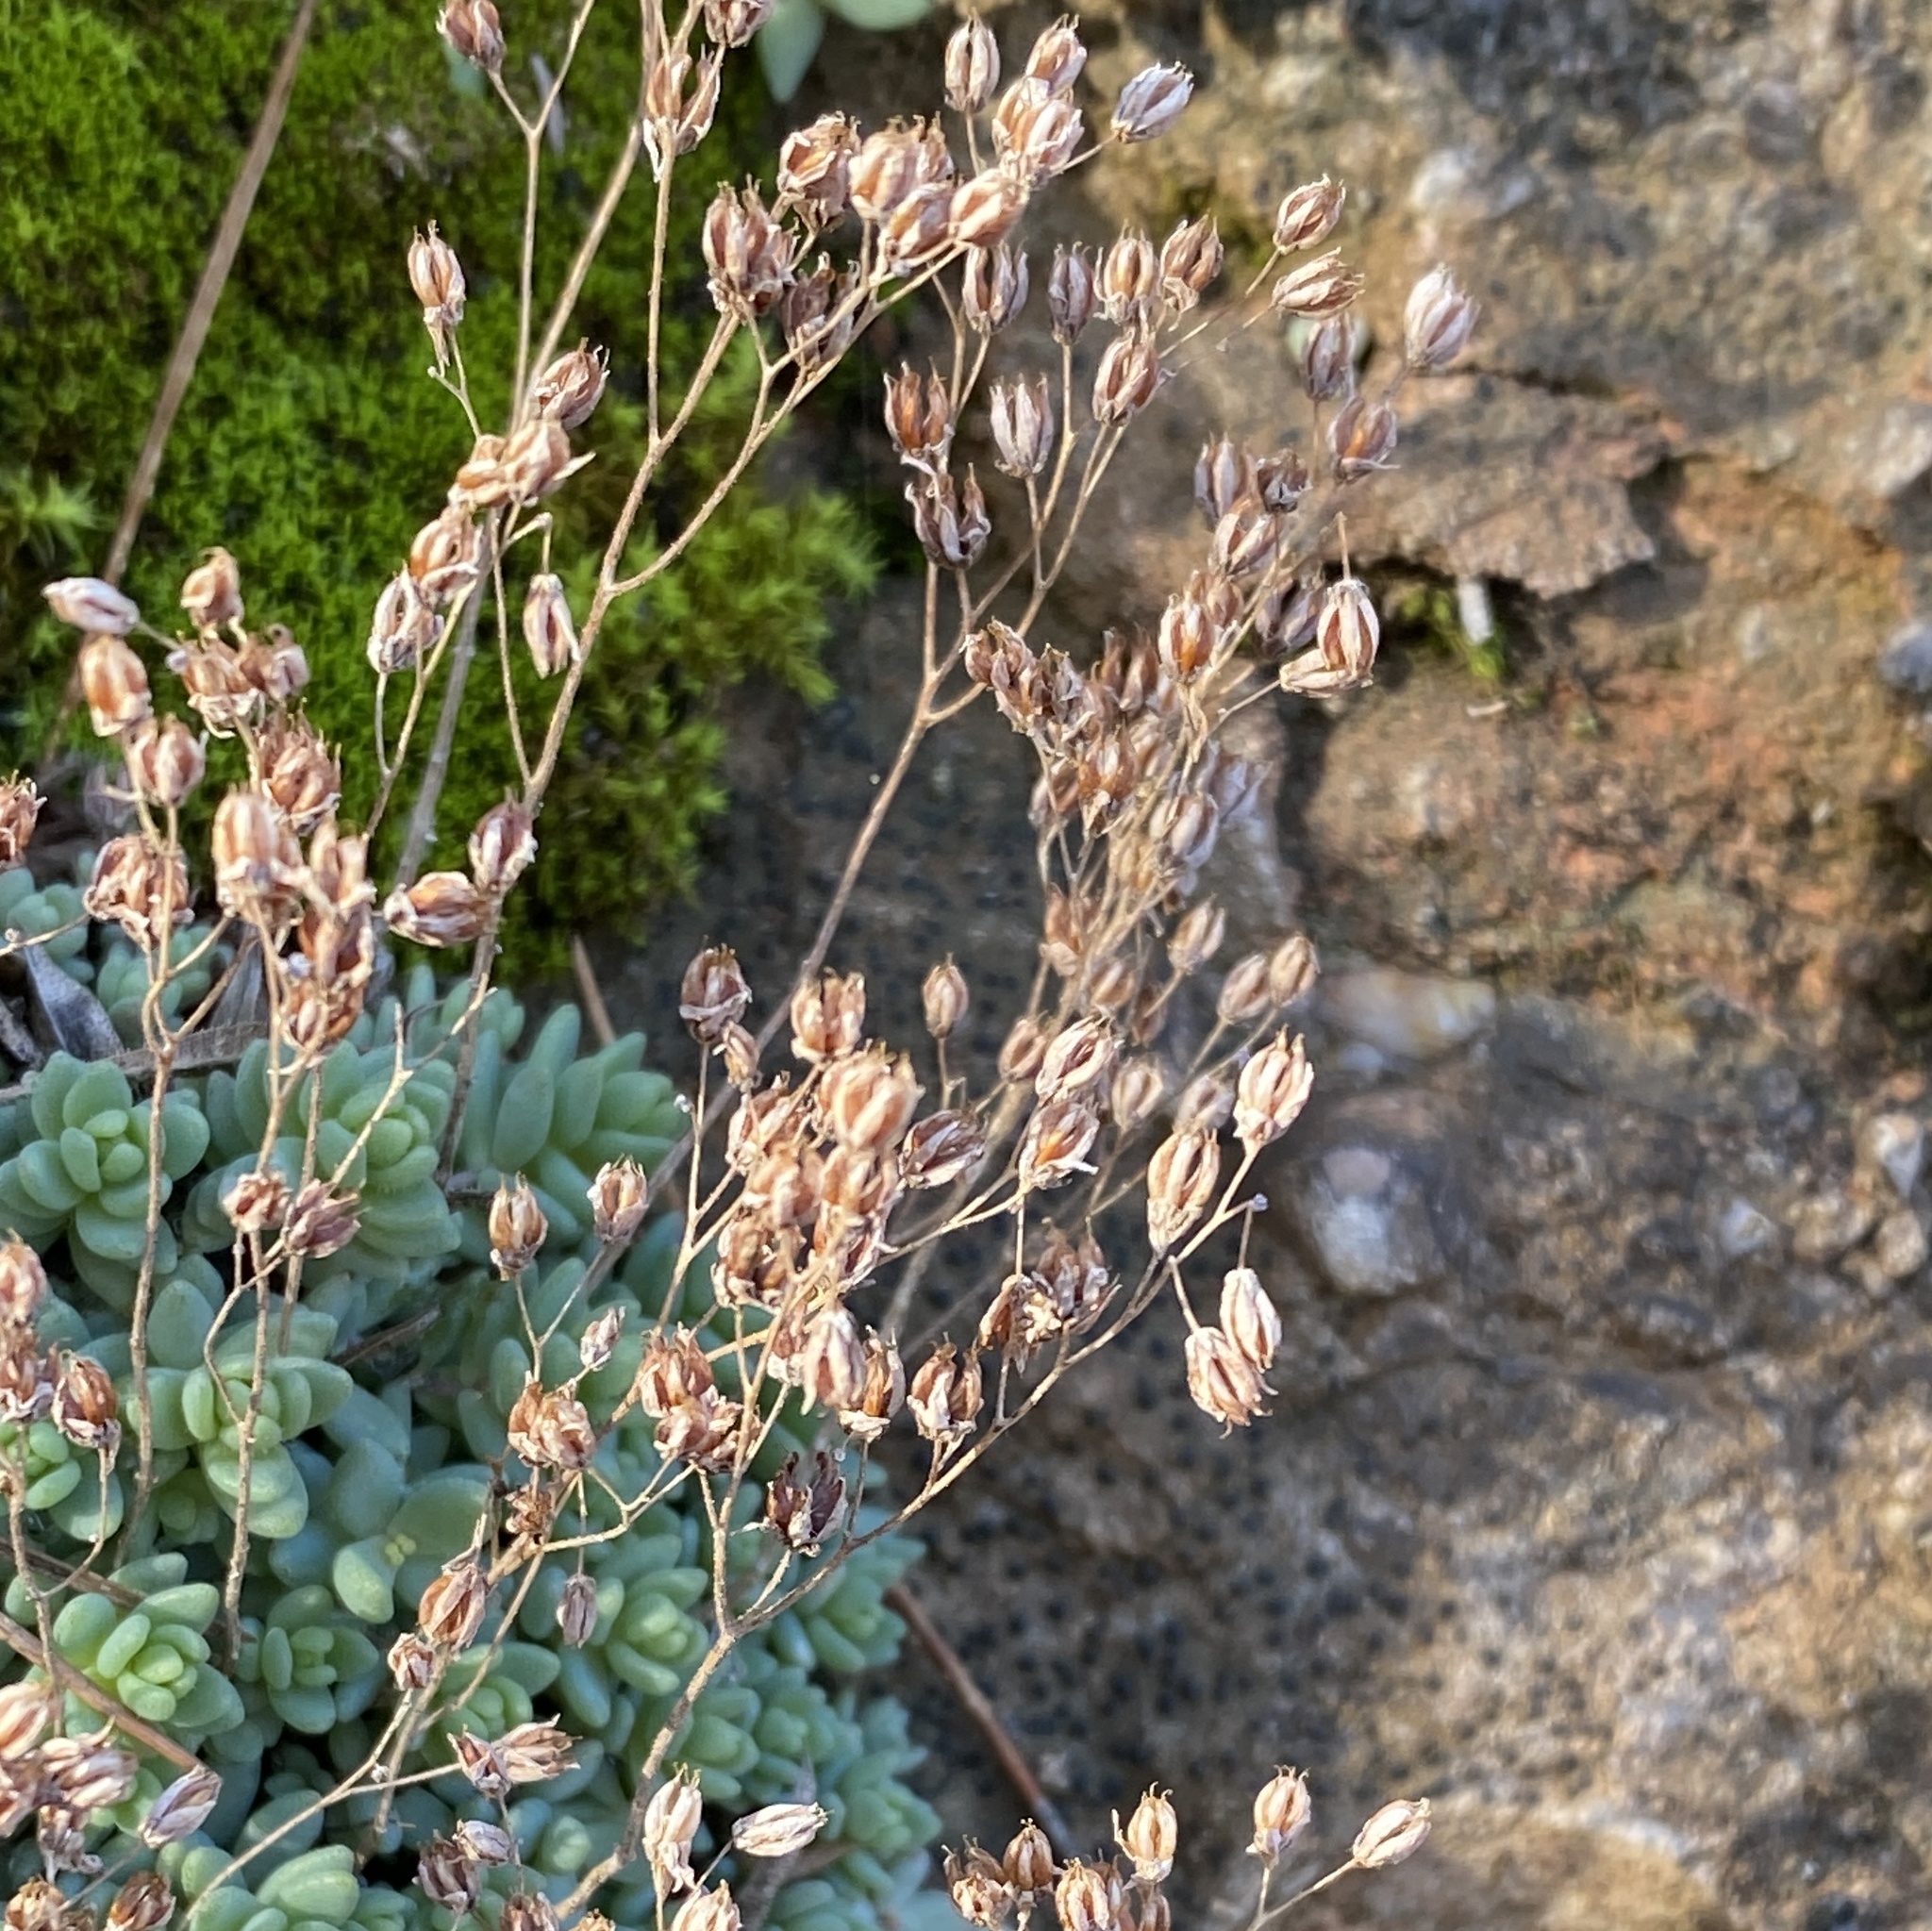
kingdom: Plantae
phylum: Tracheophyta
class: Magnoliopsida
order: Saxifragales
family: Crassulaceae
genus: Sedum
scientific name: Sedum dasyphyllum
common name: Thick-leaf stonecrop
